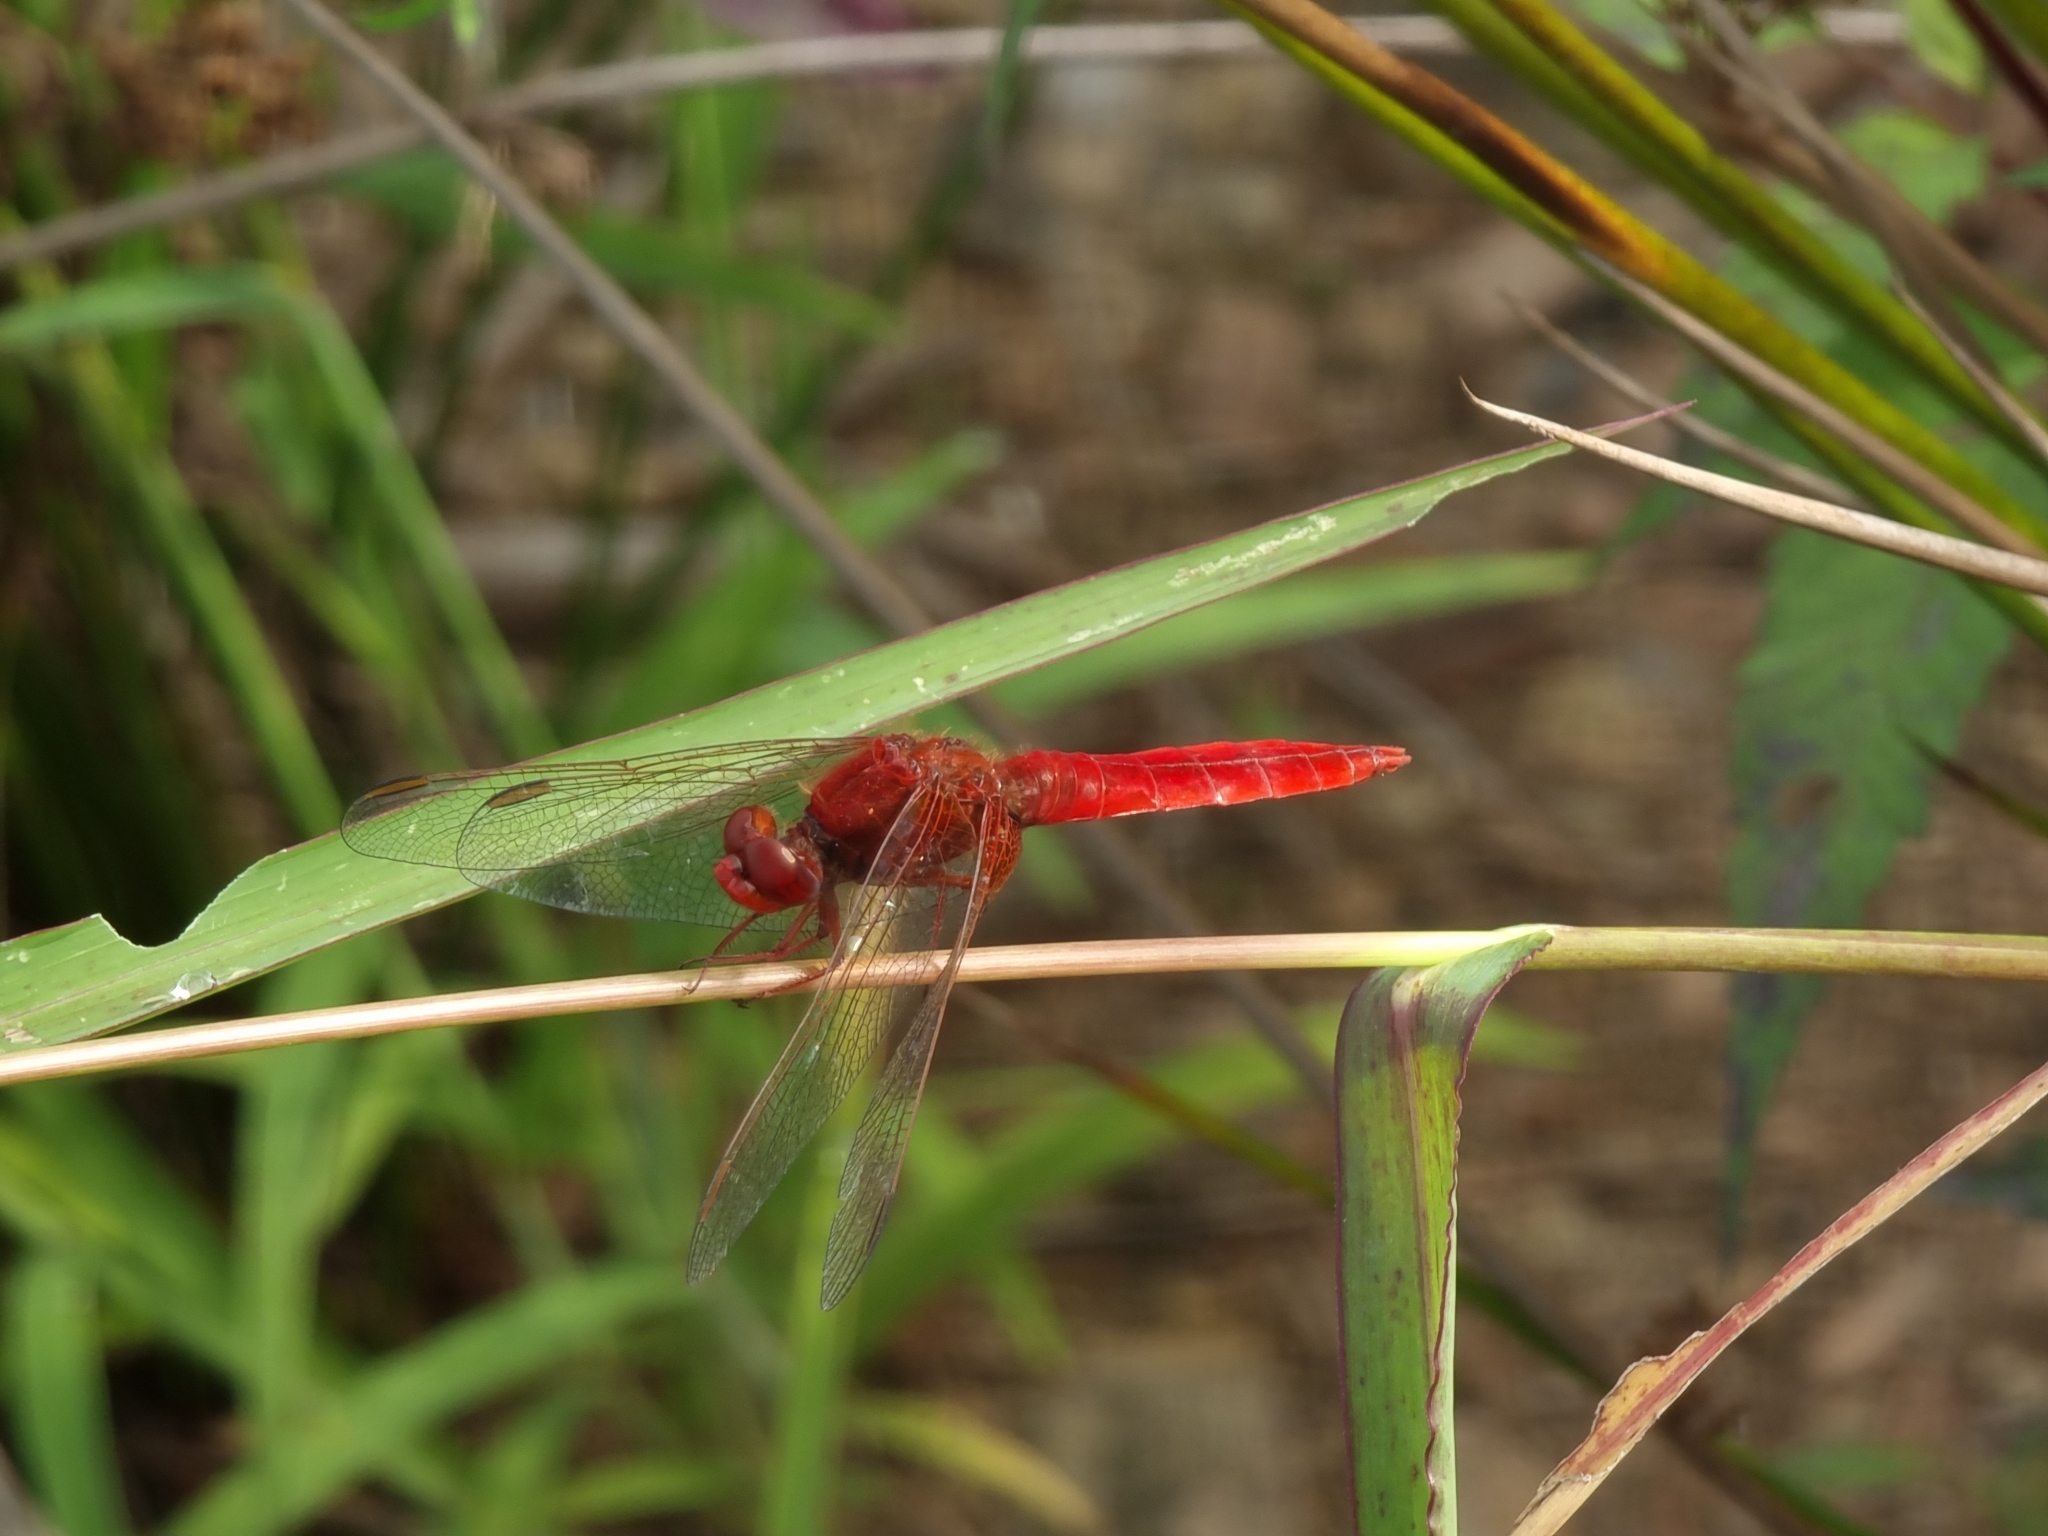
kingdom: Animalia
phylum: Arthropoda
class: Insecta
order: Odonata
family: Libellulidae
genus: Crocothemis
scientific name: Crocothemis erythraea
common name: Scarlet dragonfly
